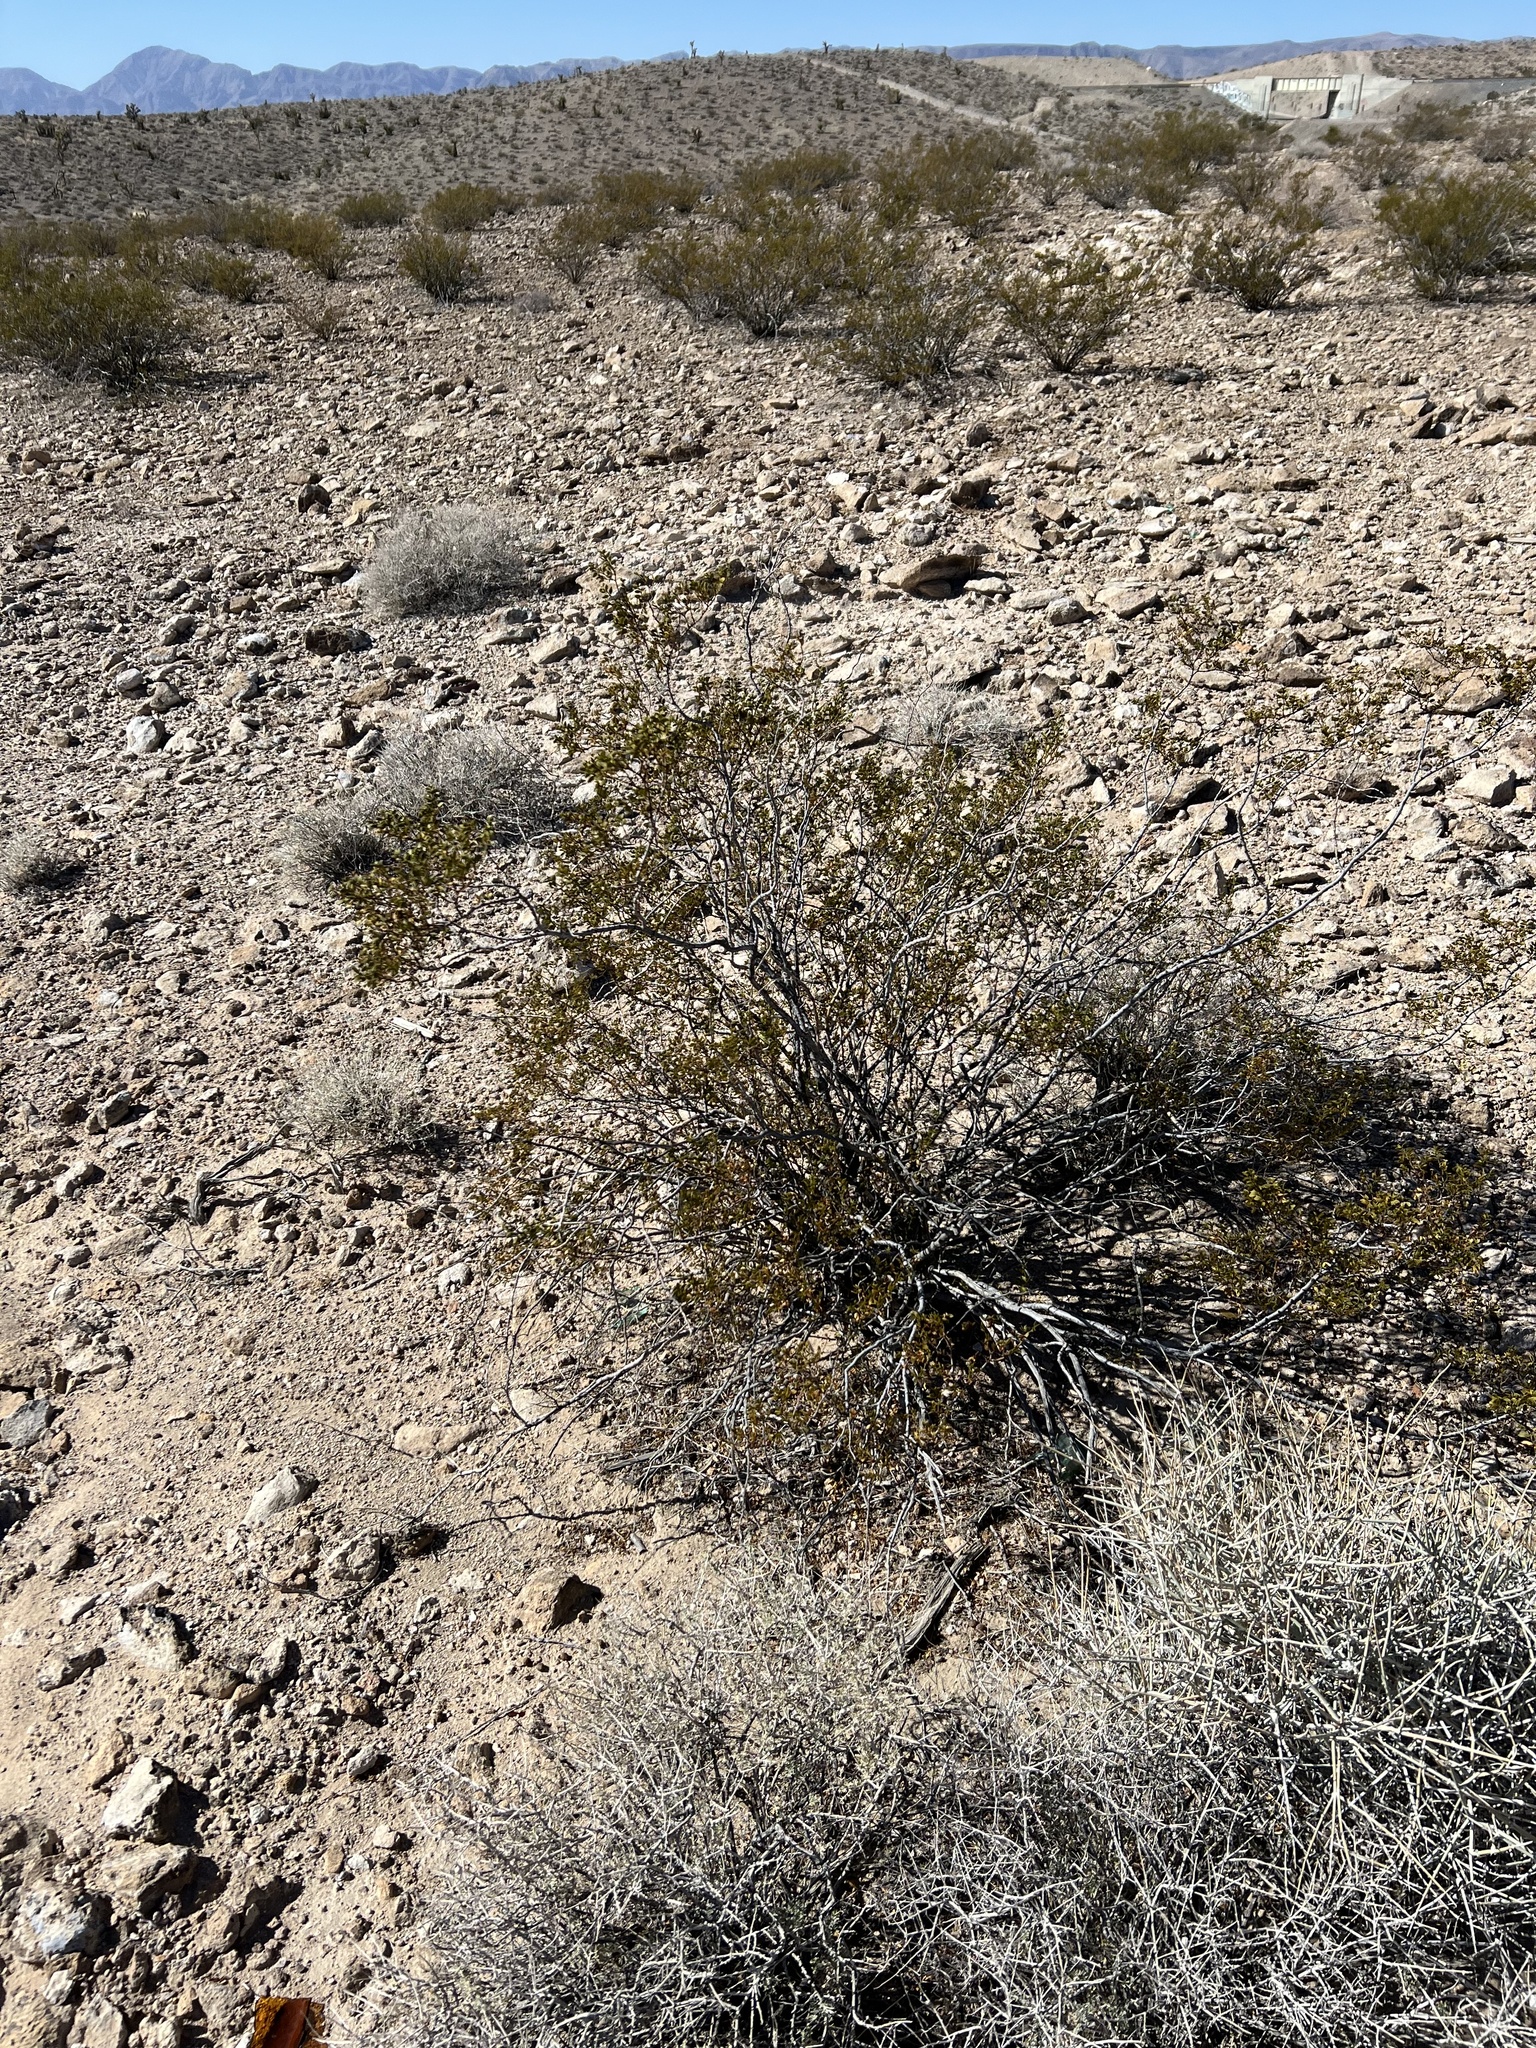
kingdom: Plantae
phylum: Tracheophyta
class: Magnoliopsida
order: Zygophyllales
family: Zygophyllaceae
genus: Larrea
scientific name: Larrea tridentata
